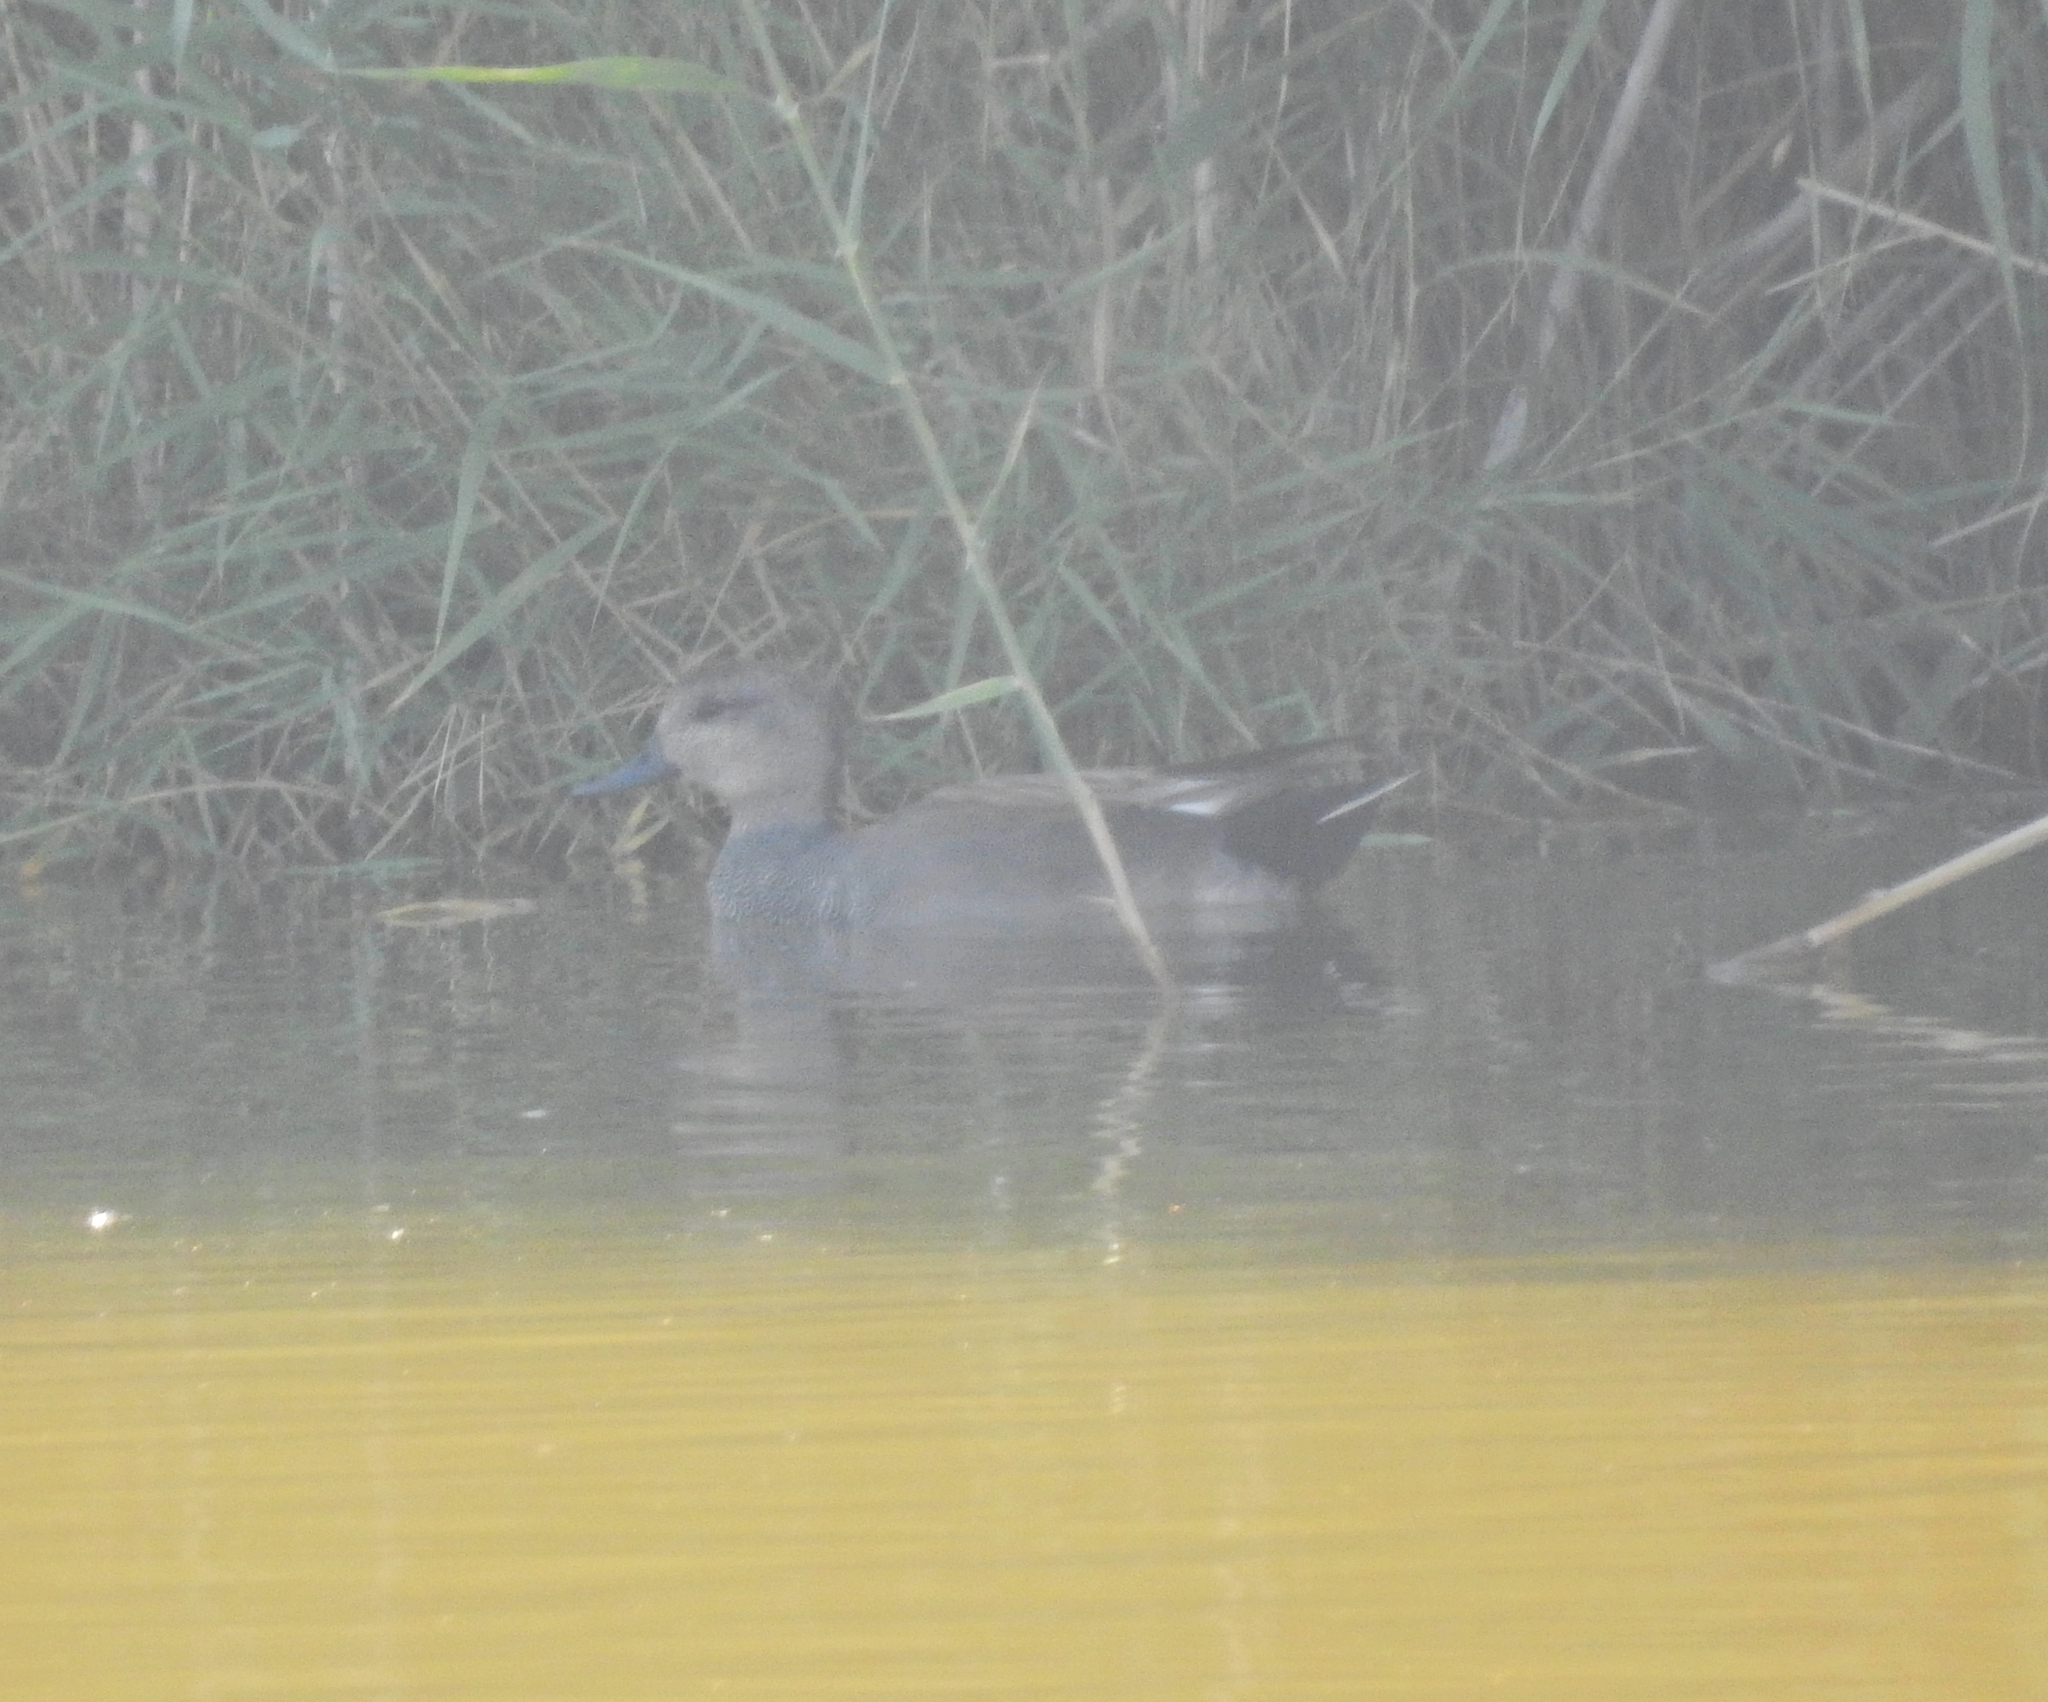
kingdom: Animalia
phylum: Chordata
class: Aves
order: Anseriformes
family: Anatidae
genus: Mareca
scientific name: Mareca strepera
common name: Gadwall
